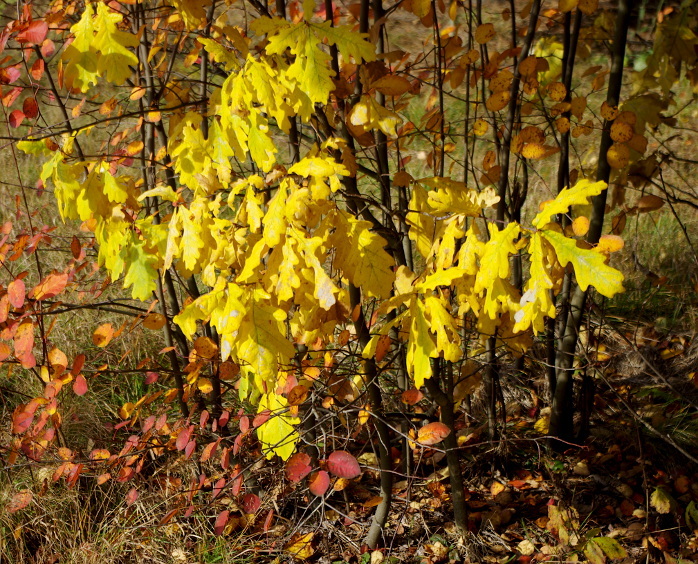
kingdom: Plantae
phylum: Tracheophyta
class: Magnoliopsida
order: Fagales
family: Fagaceae
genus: Quercus
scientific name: Quercus robur
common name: Pedunculate oak
